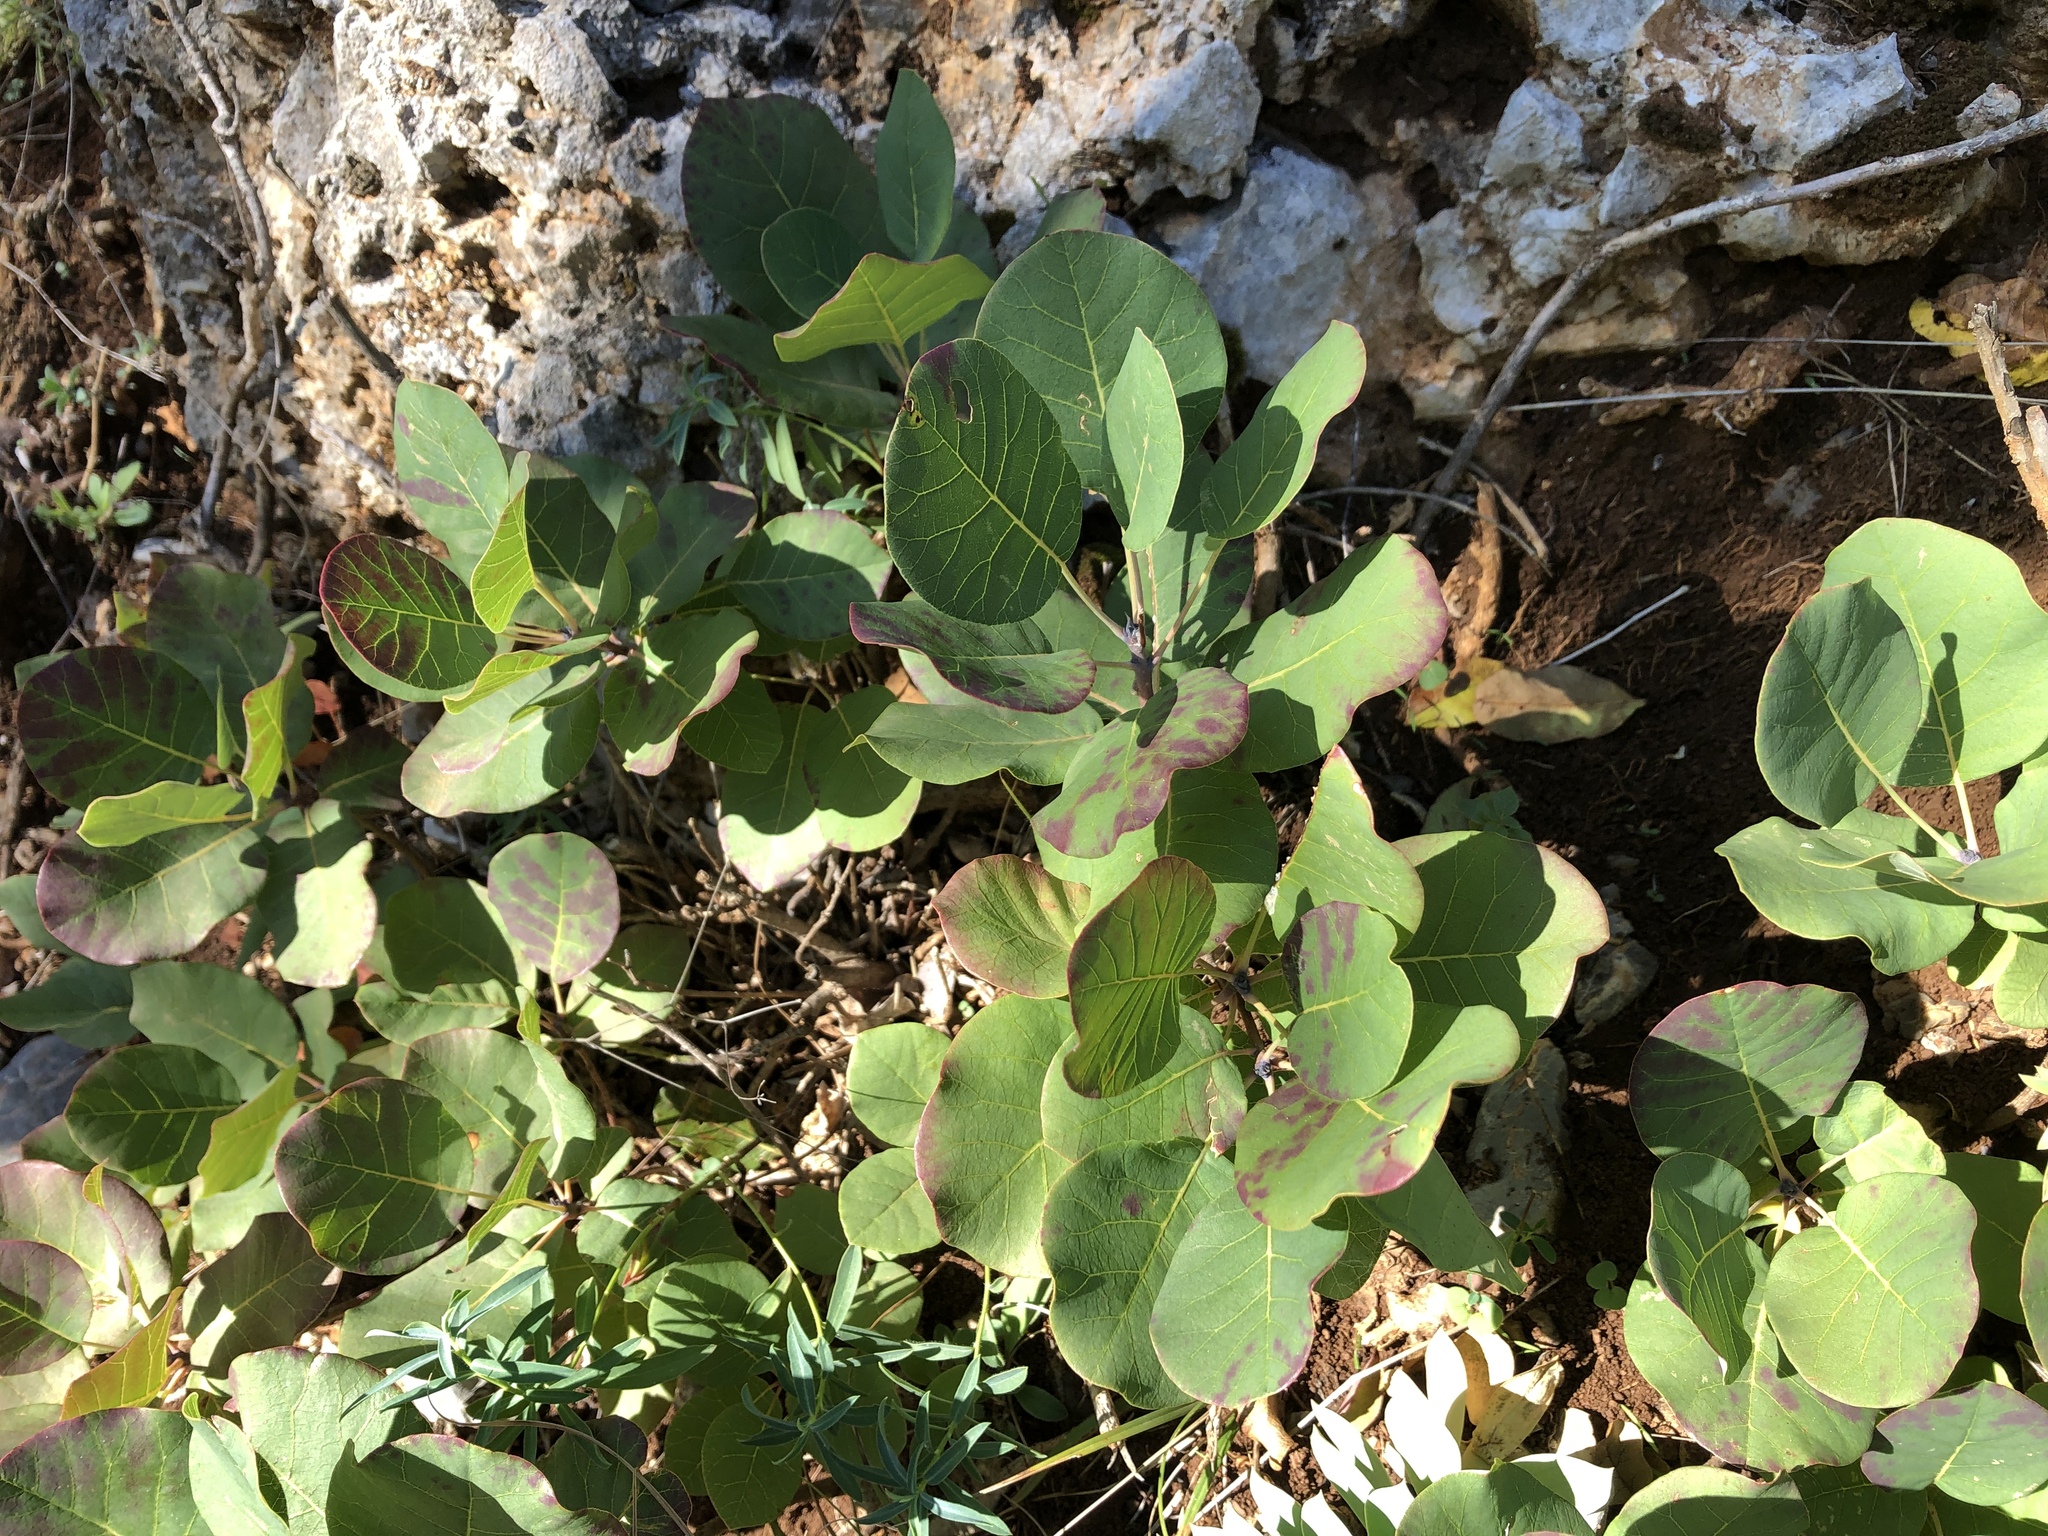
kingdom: Plantae
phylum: Tracheophyta
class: Magnoliopsida
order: Sapindales
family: Anacardiaceae
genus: Cotinus
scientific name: Cotinus coggygria
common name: Smoke-tree
